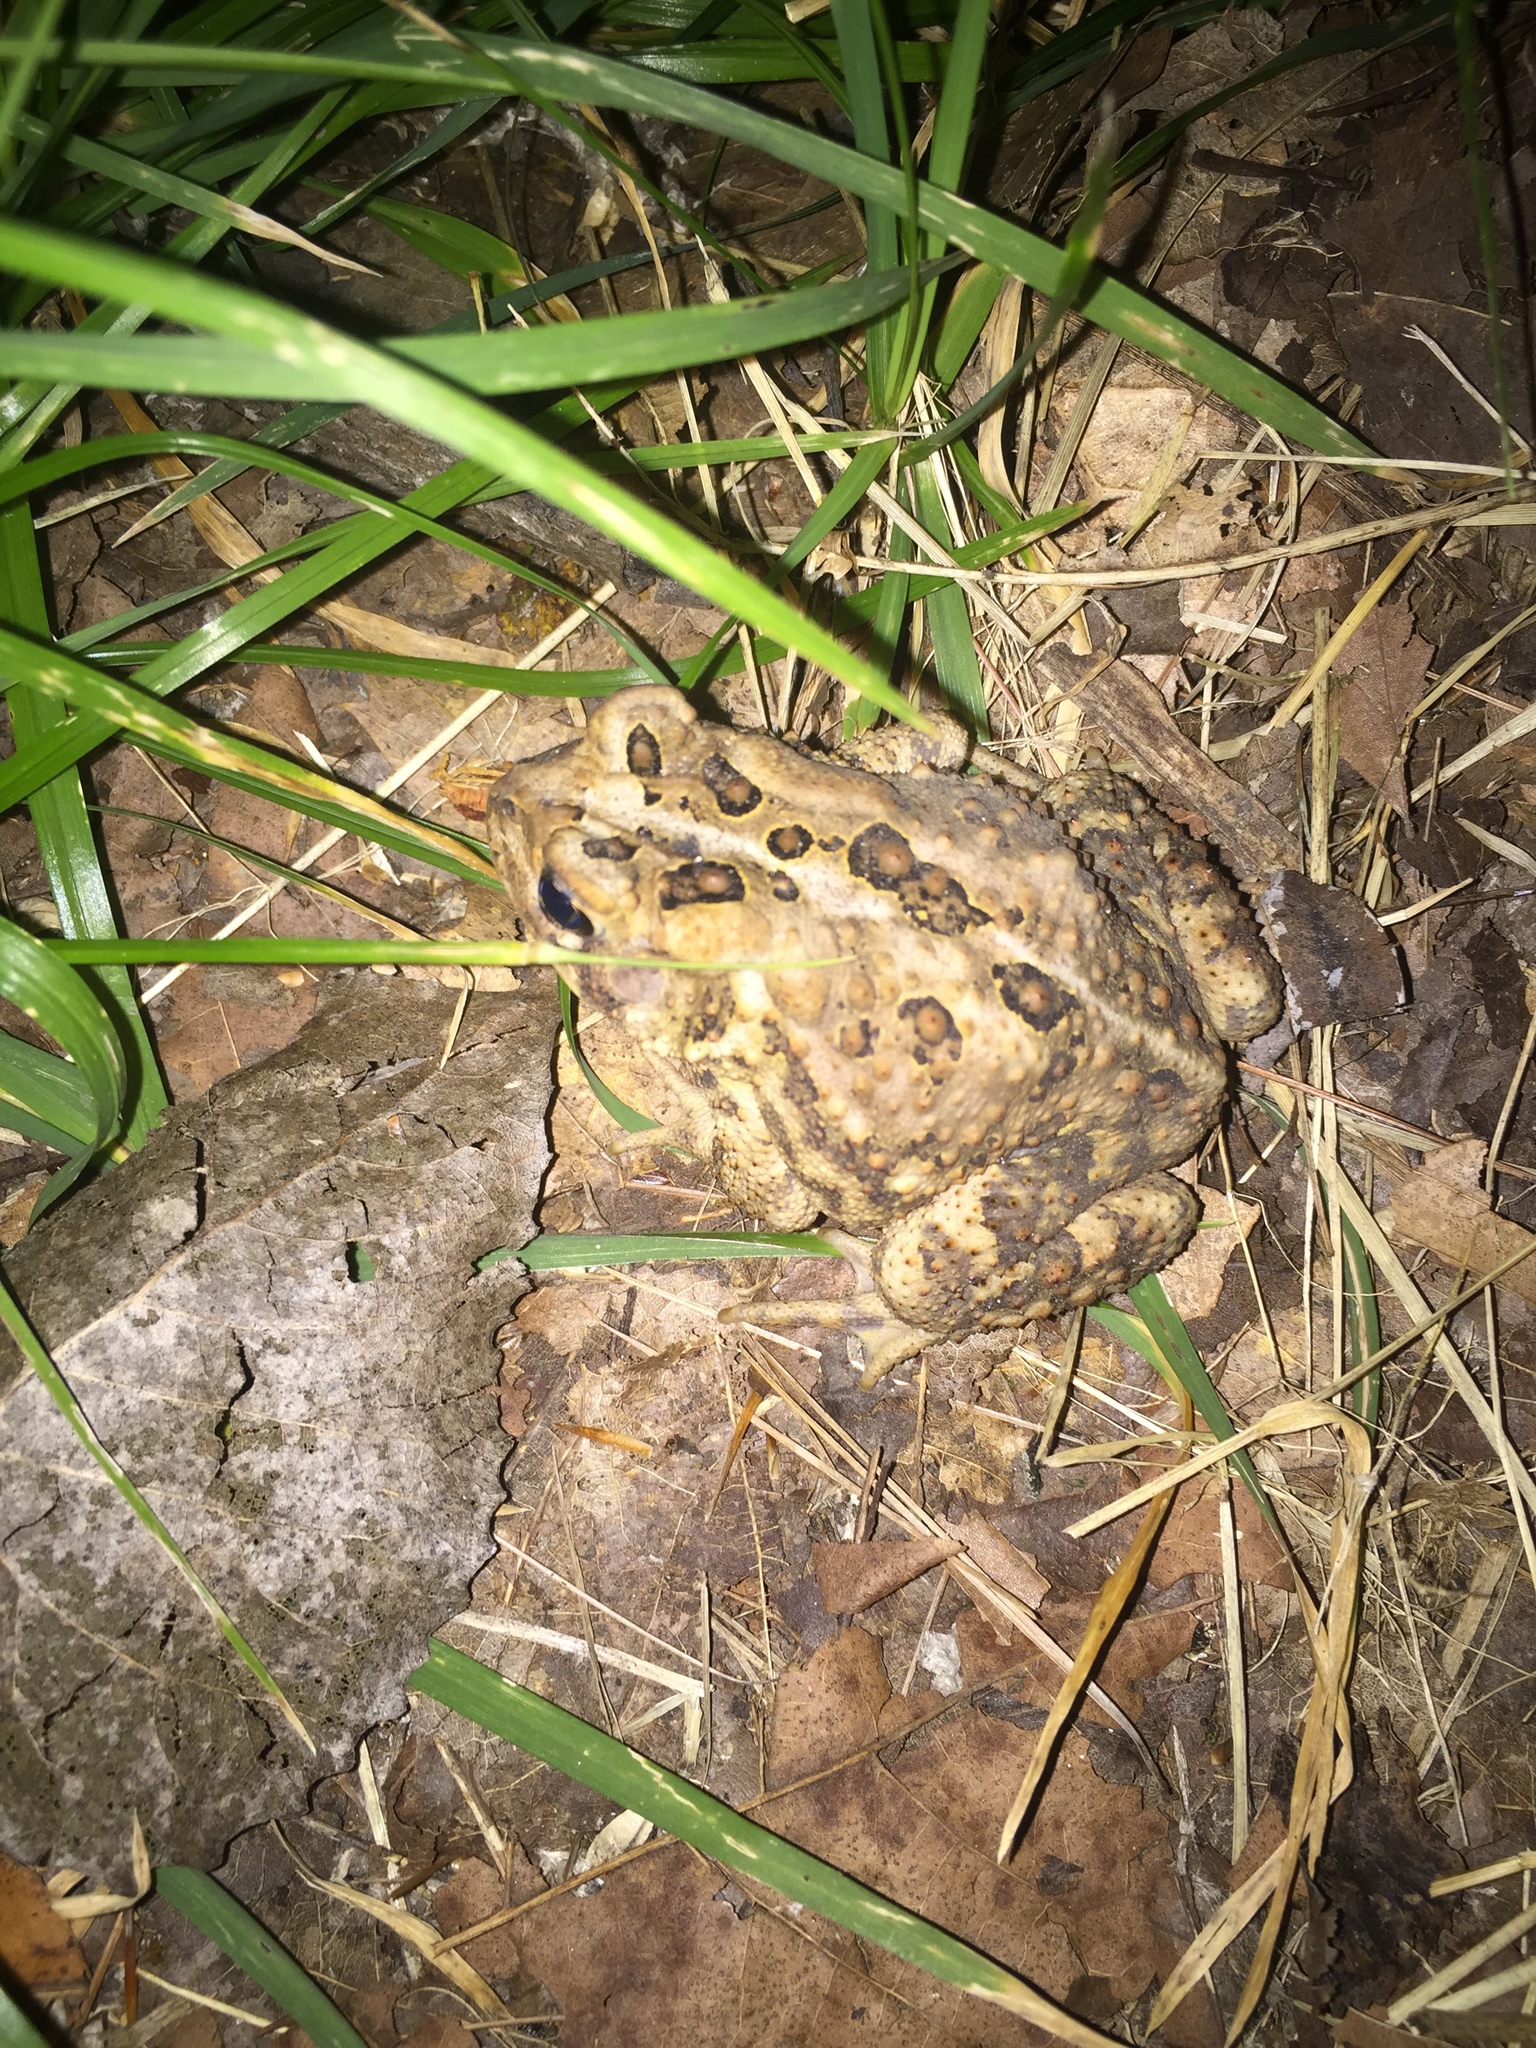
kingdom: Animalia
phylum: Chordata
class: Amphibia
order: Anura
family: Bufonidae
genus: Anaxyrus
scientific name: Anaxyrus americanus
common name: American toad
